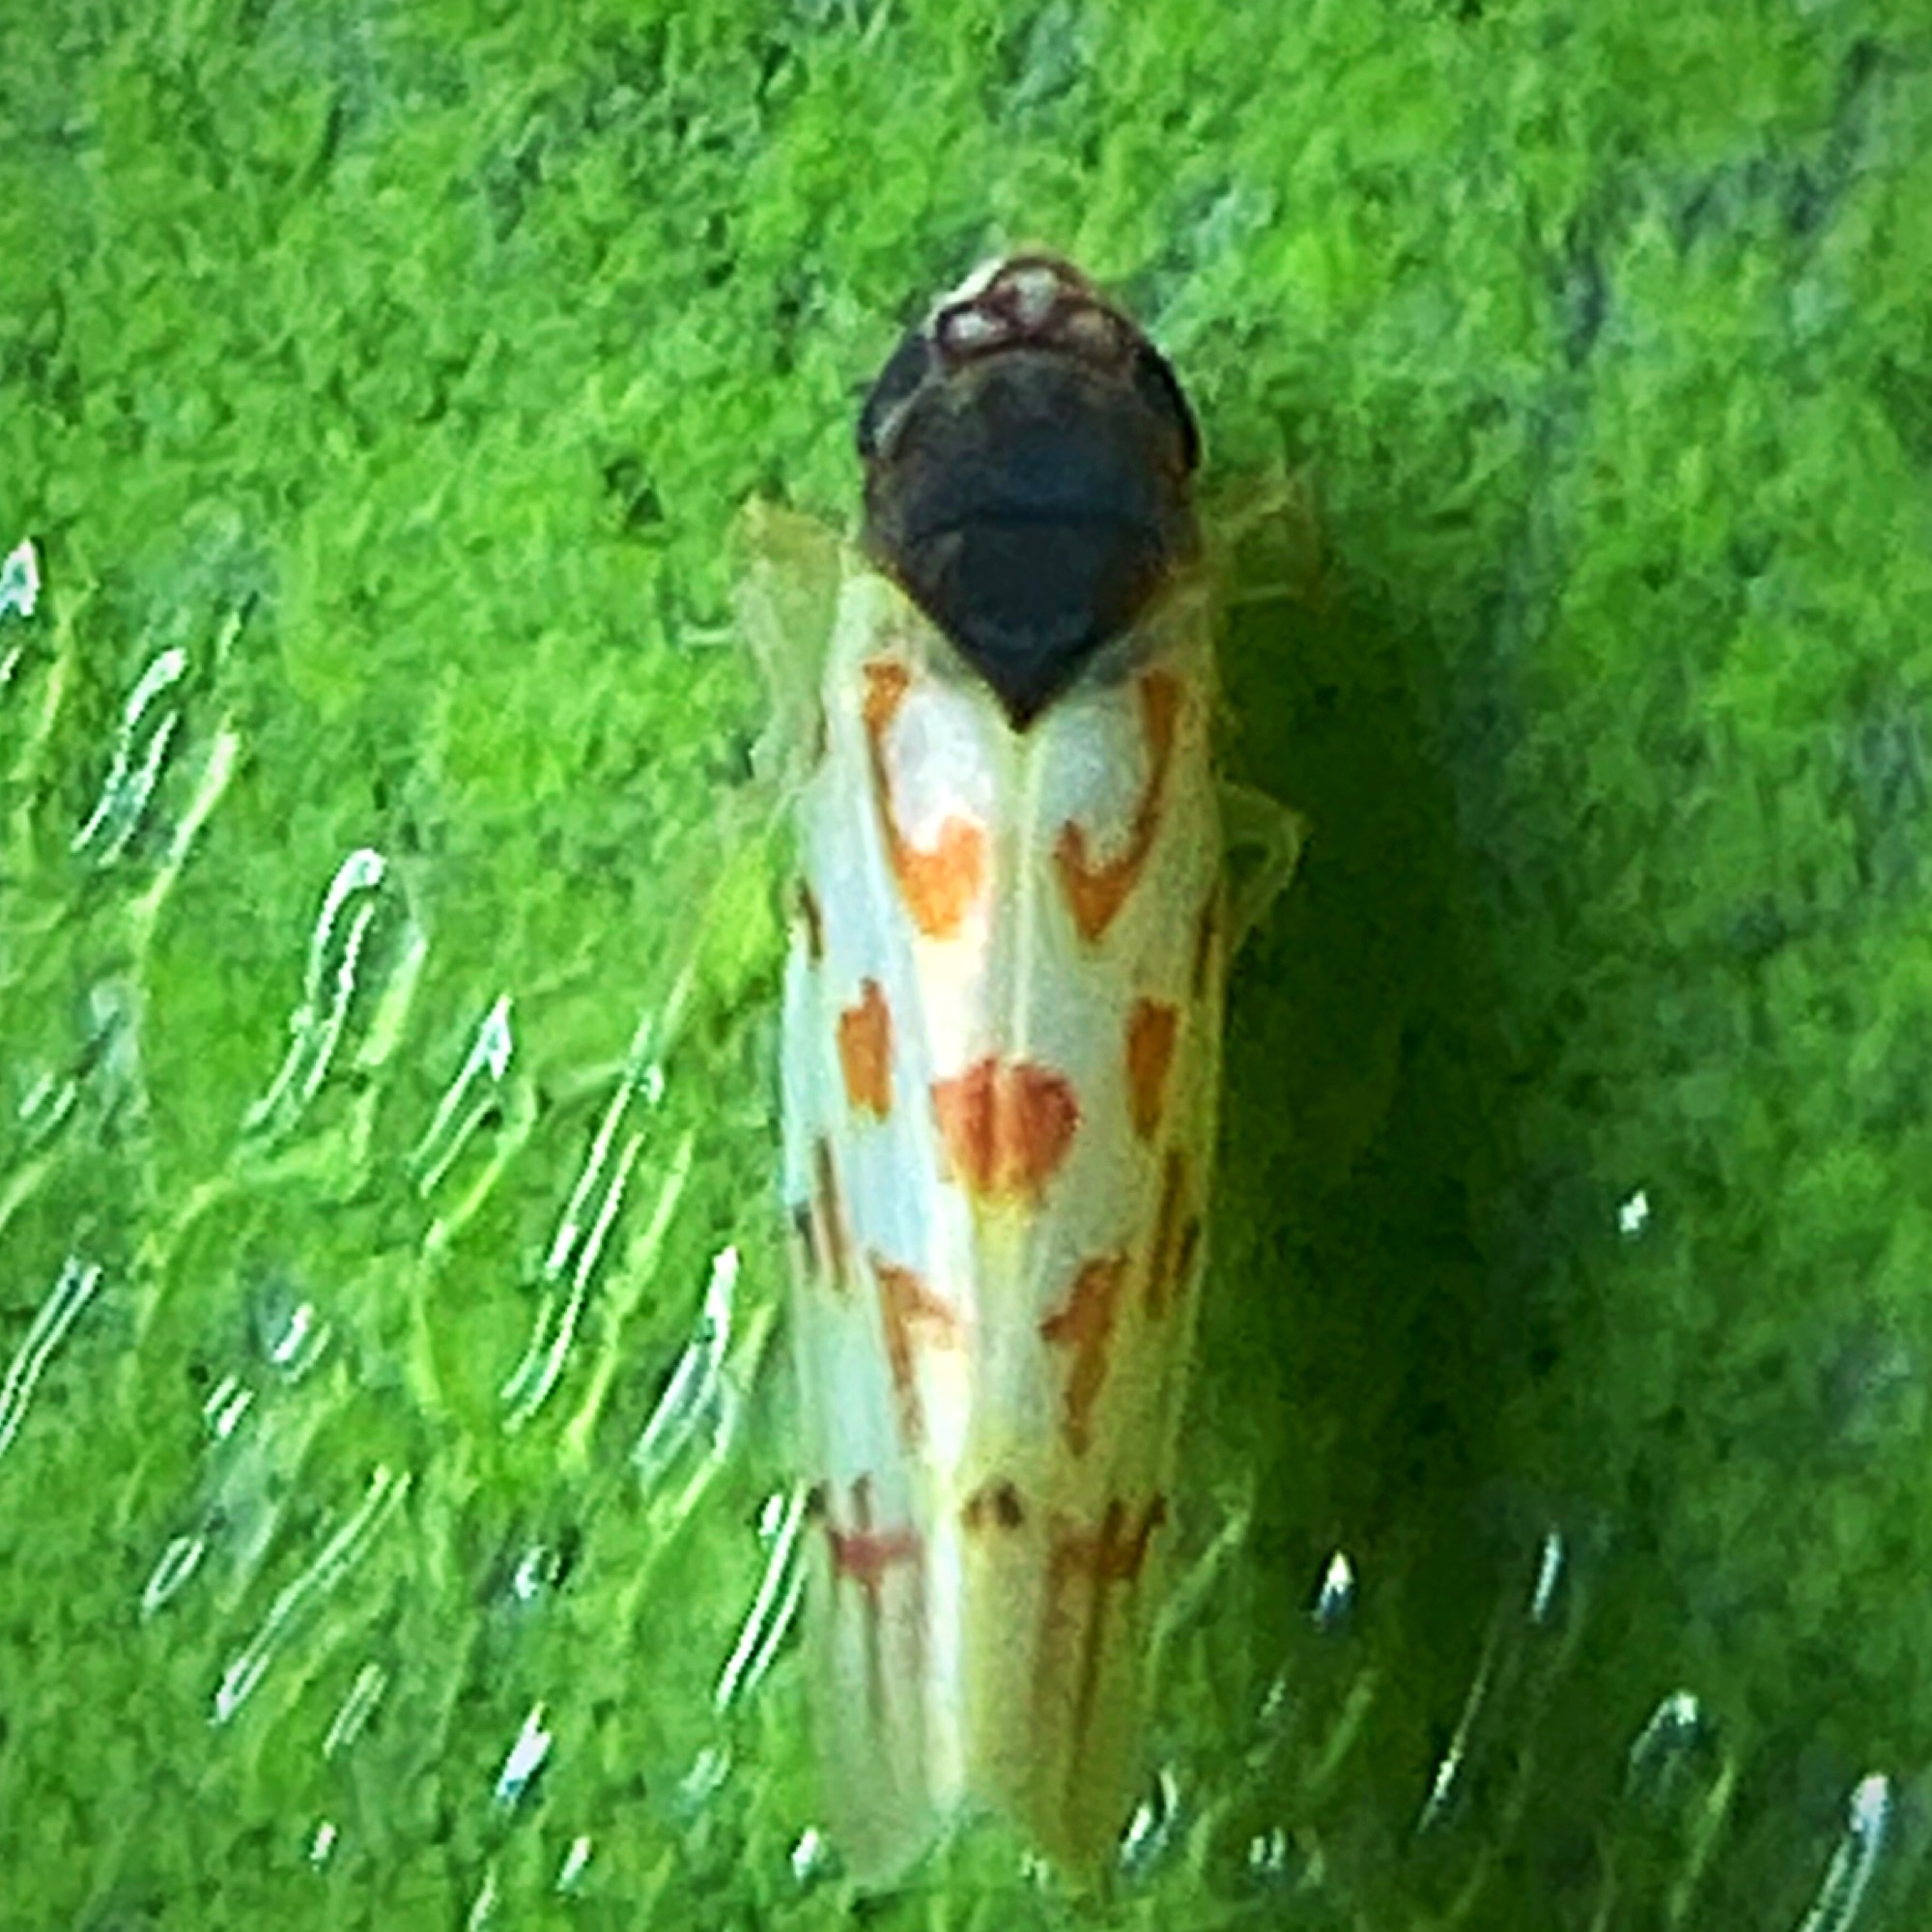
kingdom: Animalia
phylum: Arthropoda
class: Insecta
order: Hemiptera
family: Cicadellidae
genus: Eratoneura
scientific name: Eratoneura ardens
